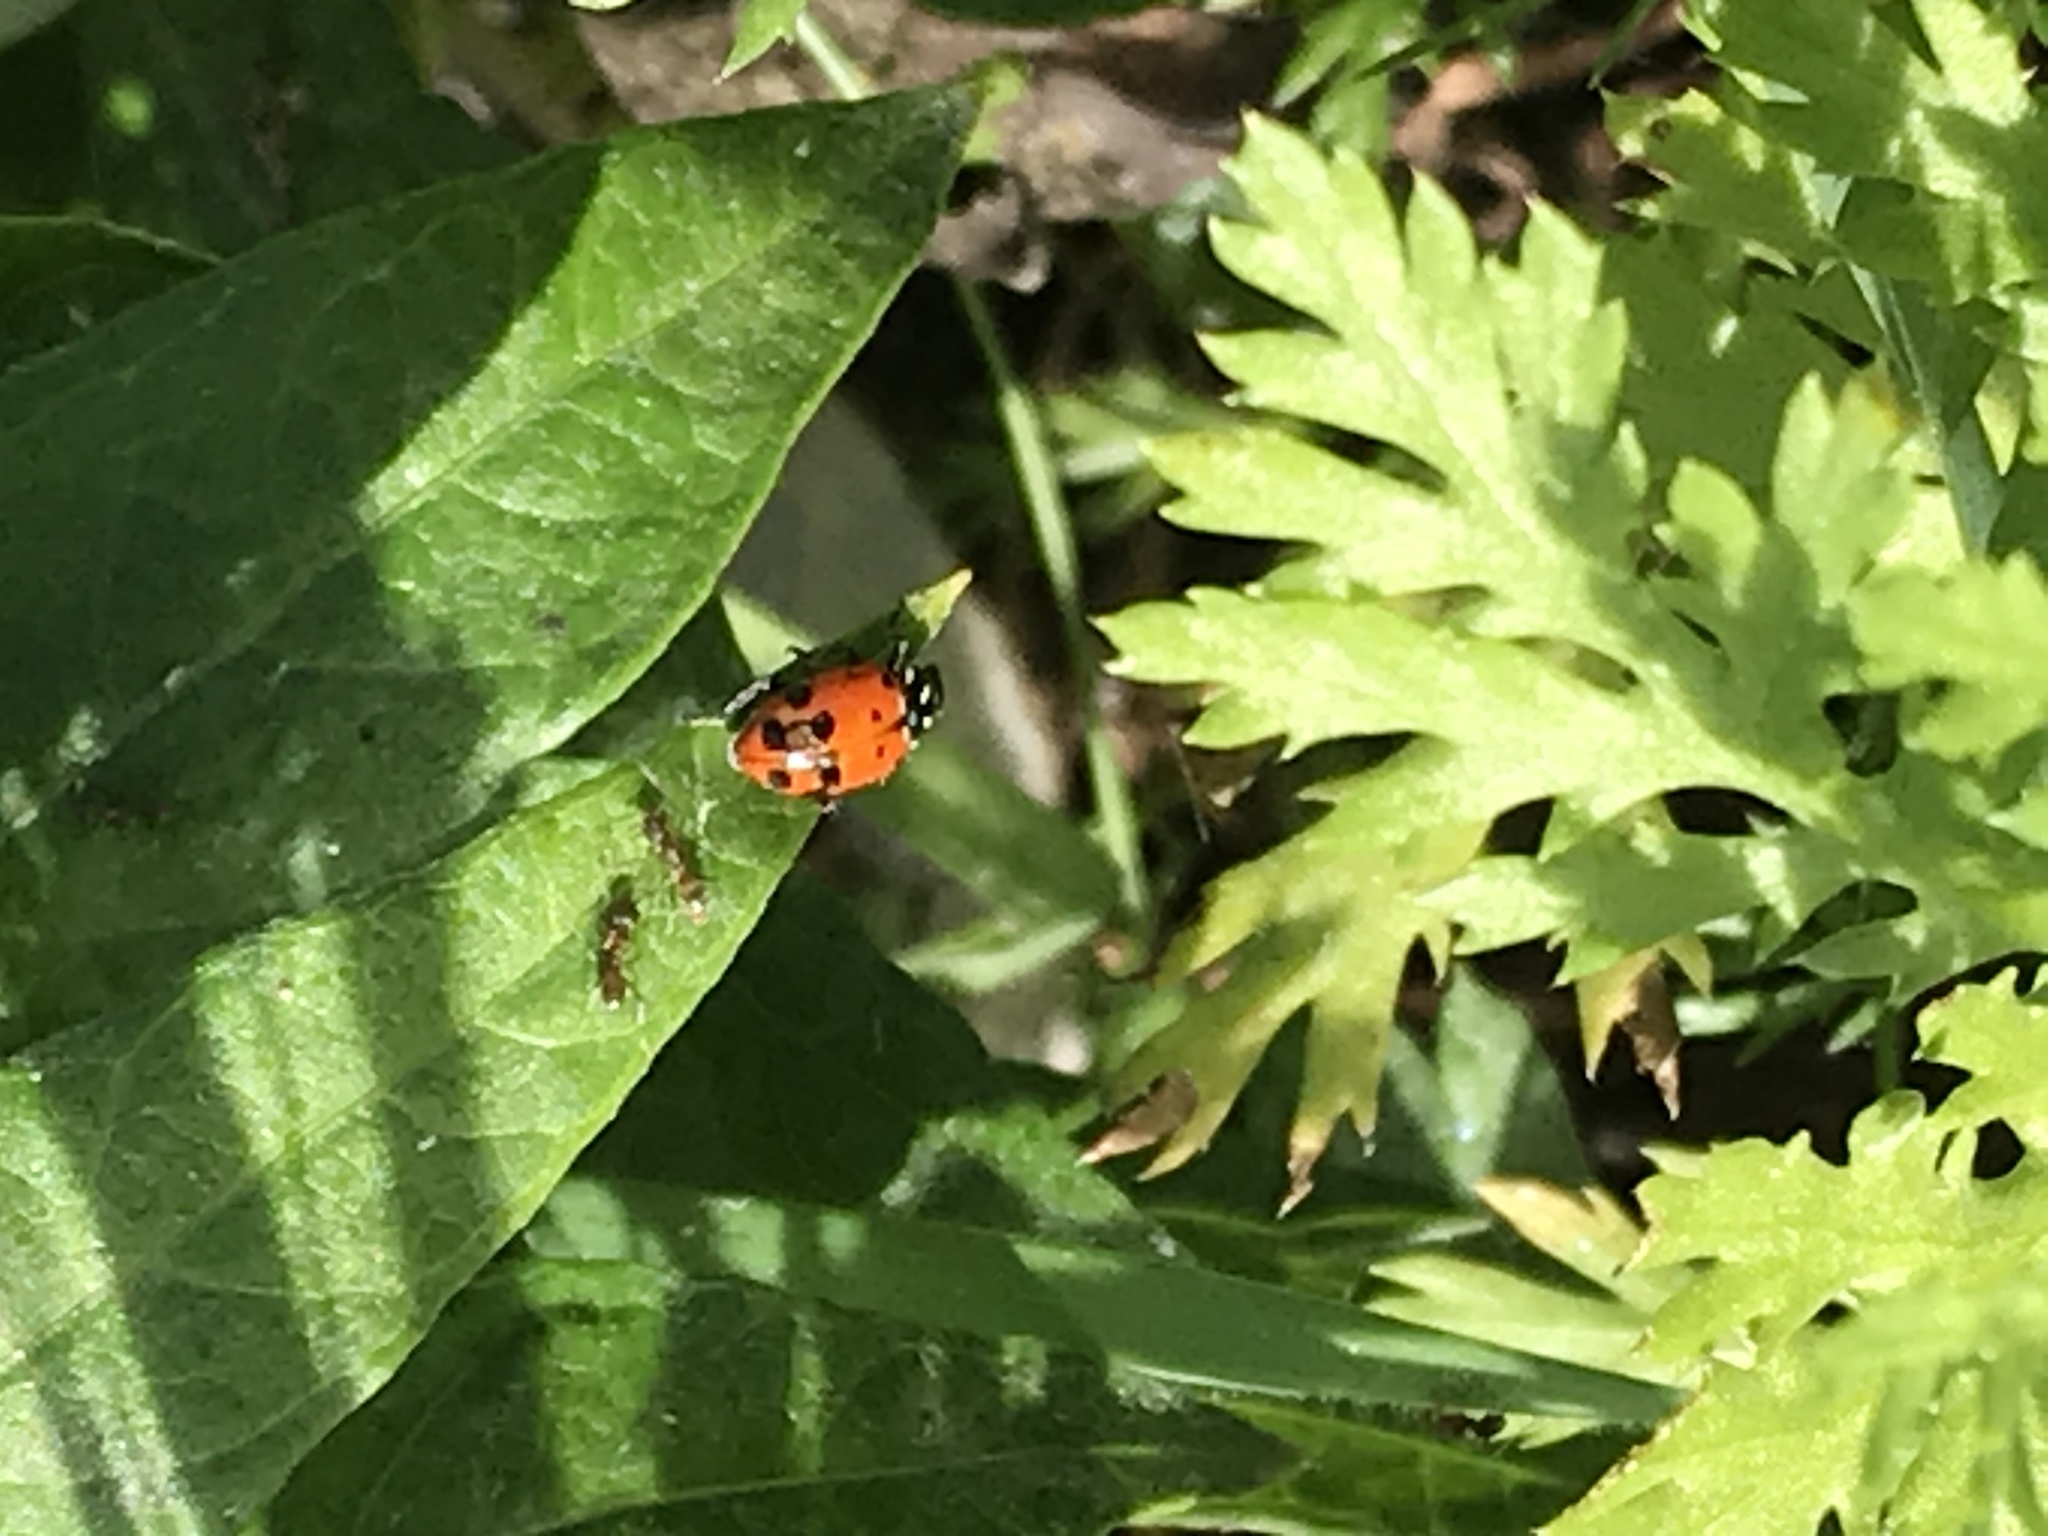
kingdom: Animalia
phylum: Arthropoda
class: Insecta
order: Coleoptera
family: Coccinellidae
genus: Hippodamia
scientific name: Hippodamia convergens
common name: Convergent lady beetle
